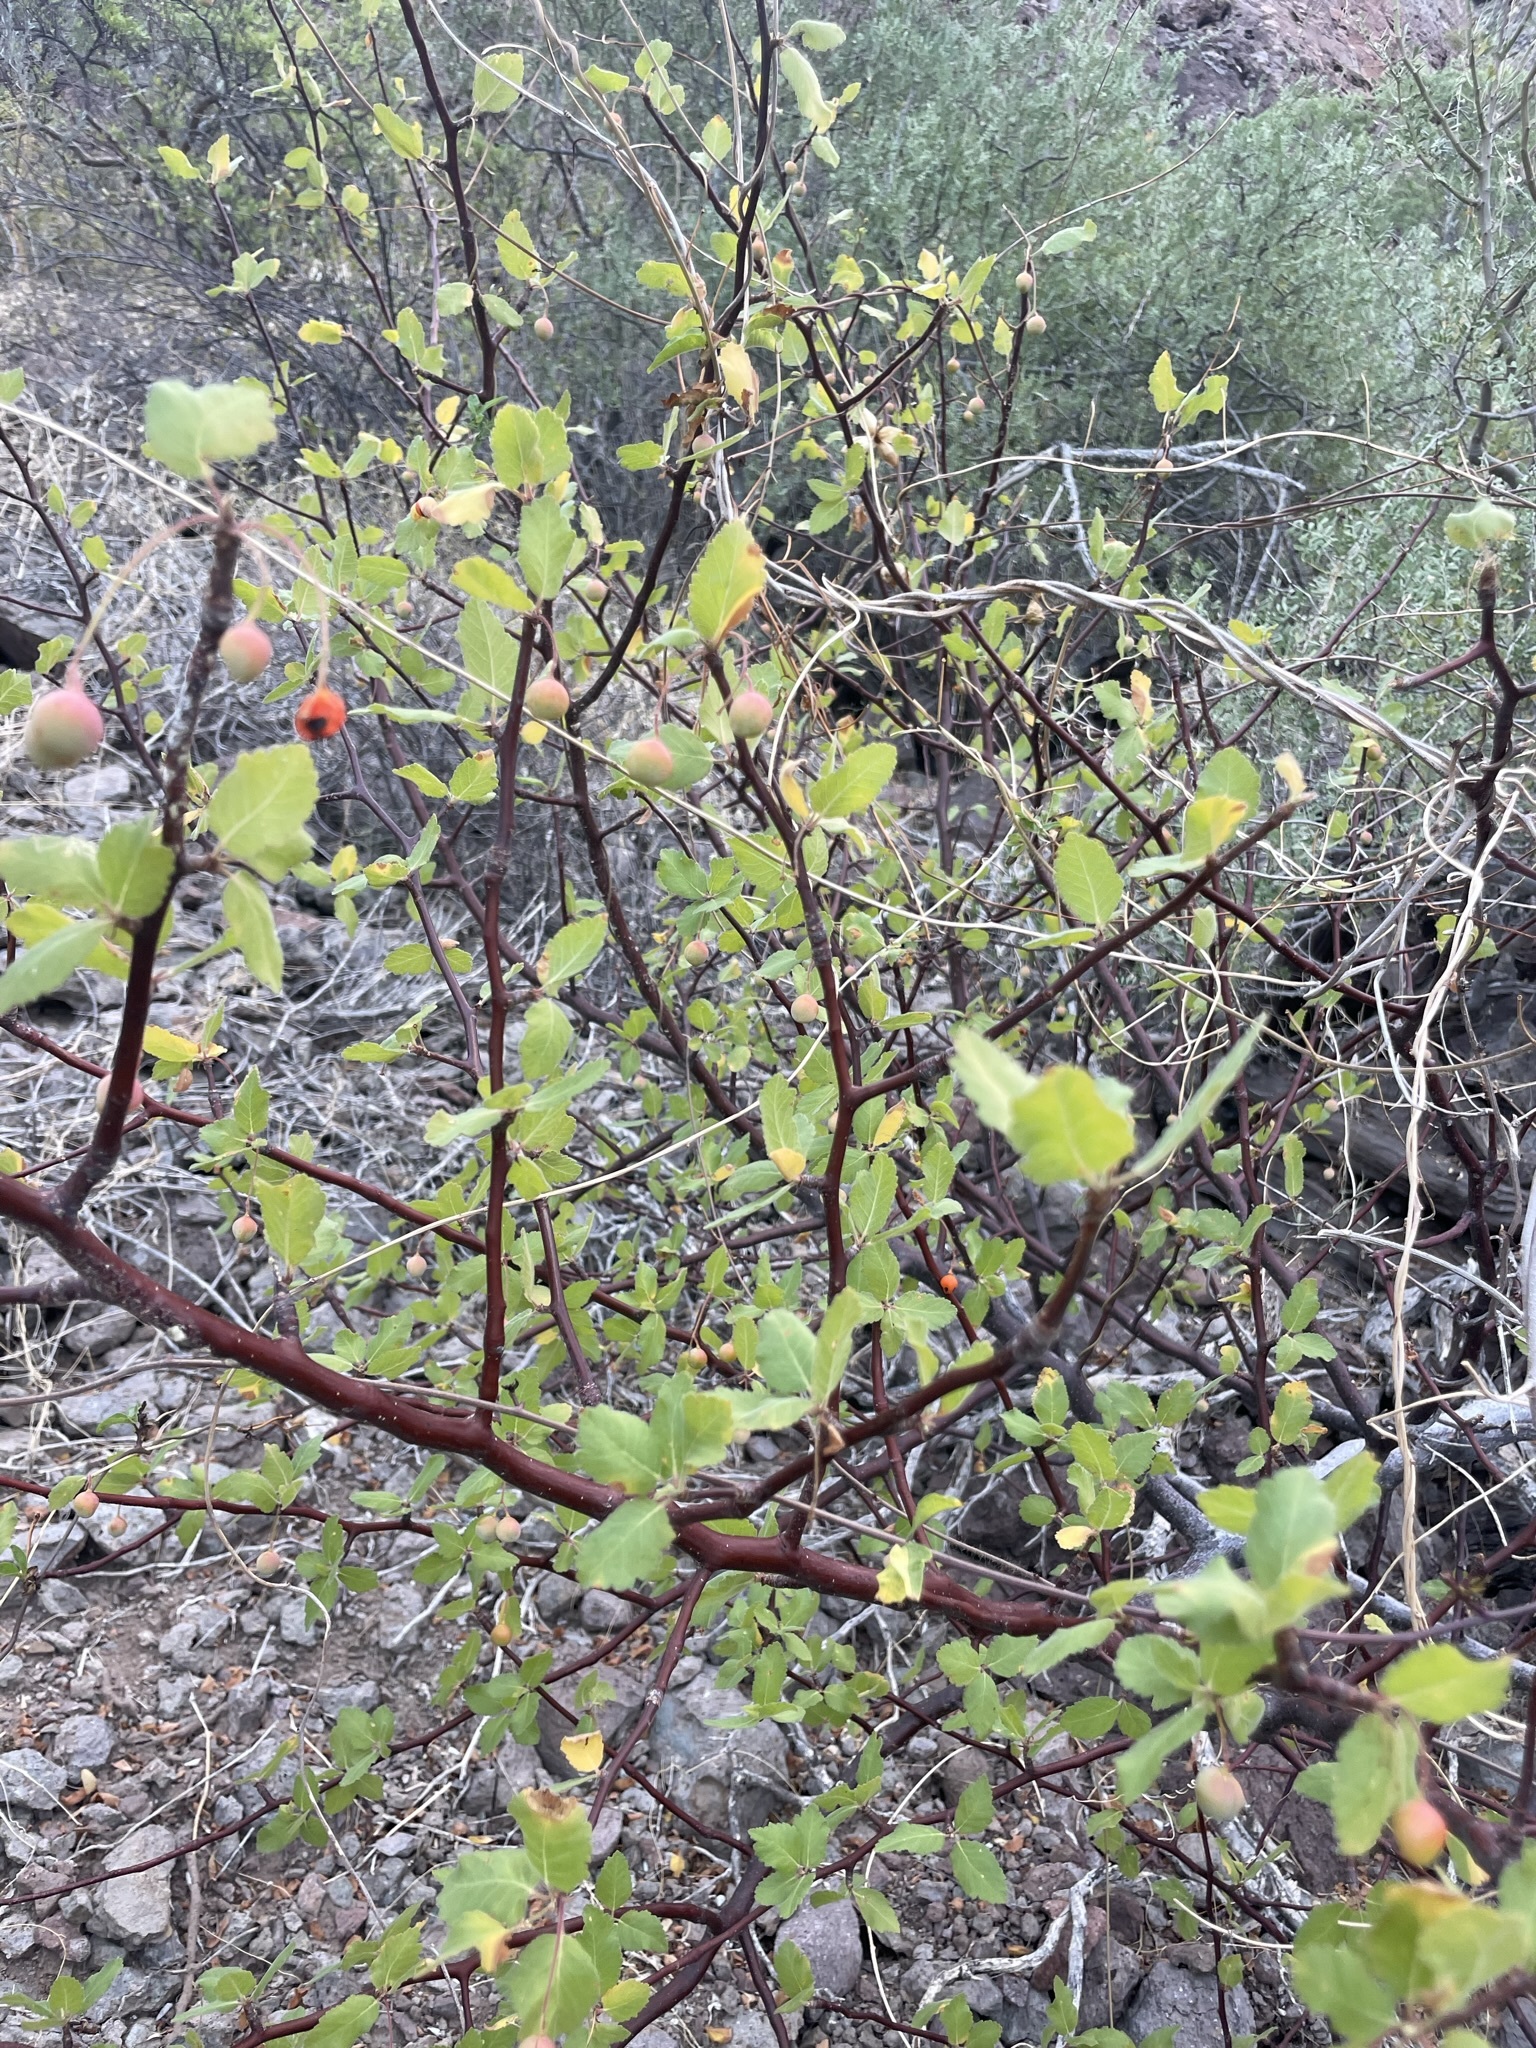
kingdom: Plantae
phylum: Tracheophyta
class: Magnoliopsida
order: Sapindales
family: Burseraceae
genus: Bursera
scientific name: Bursera epinnata
